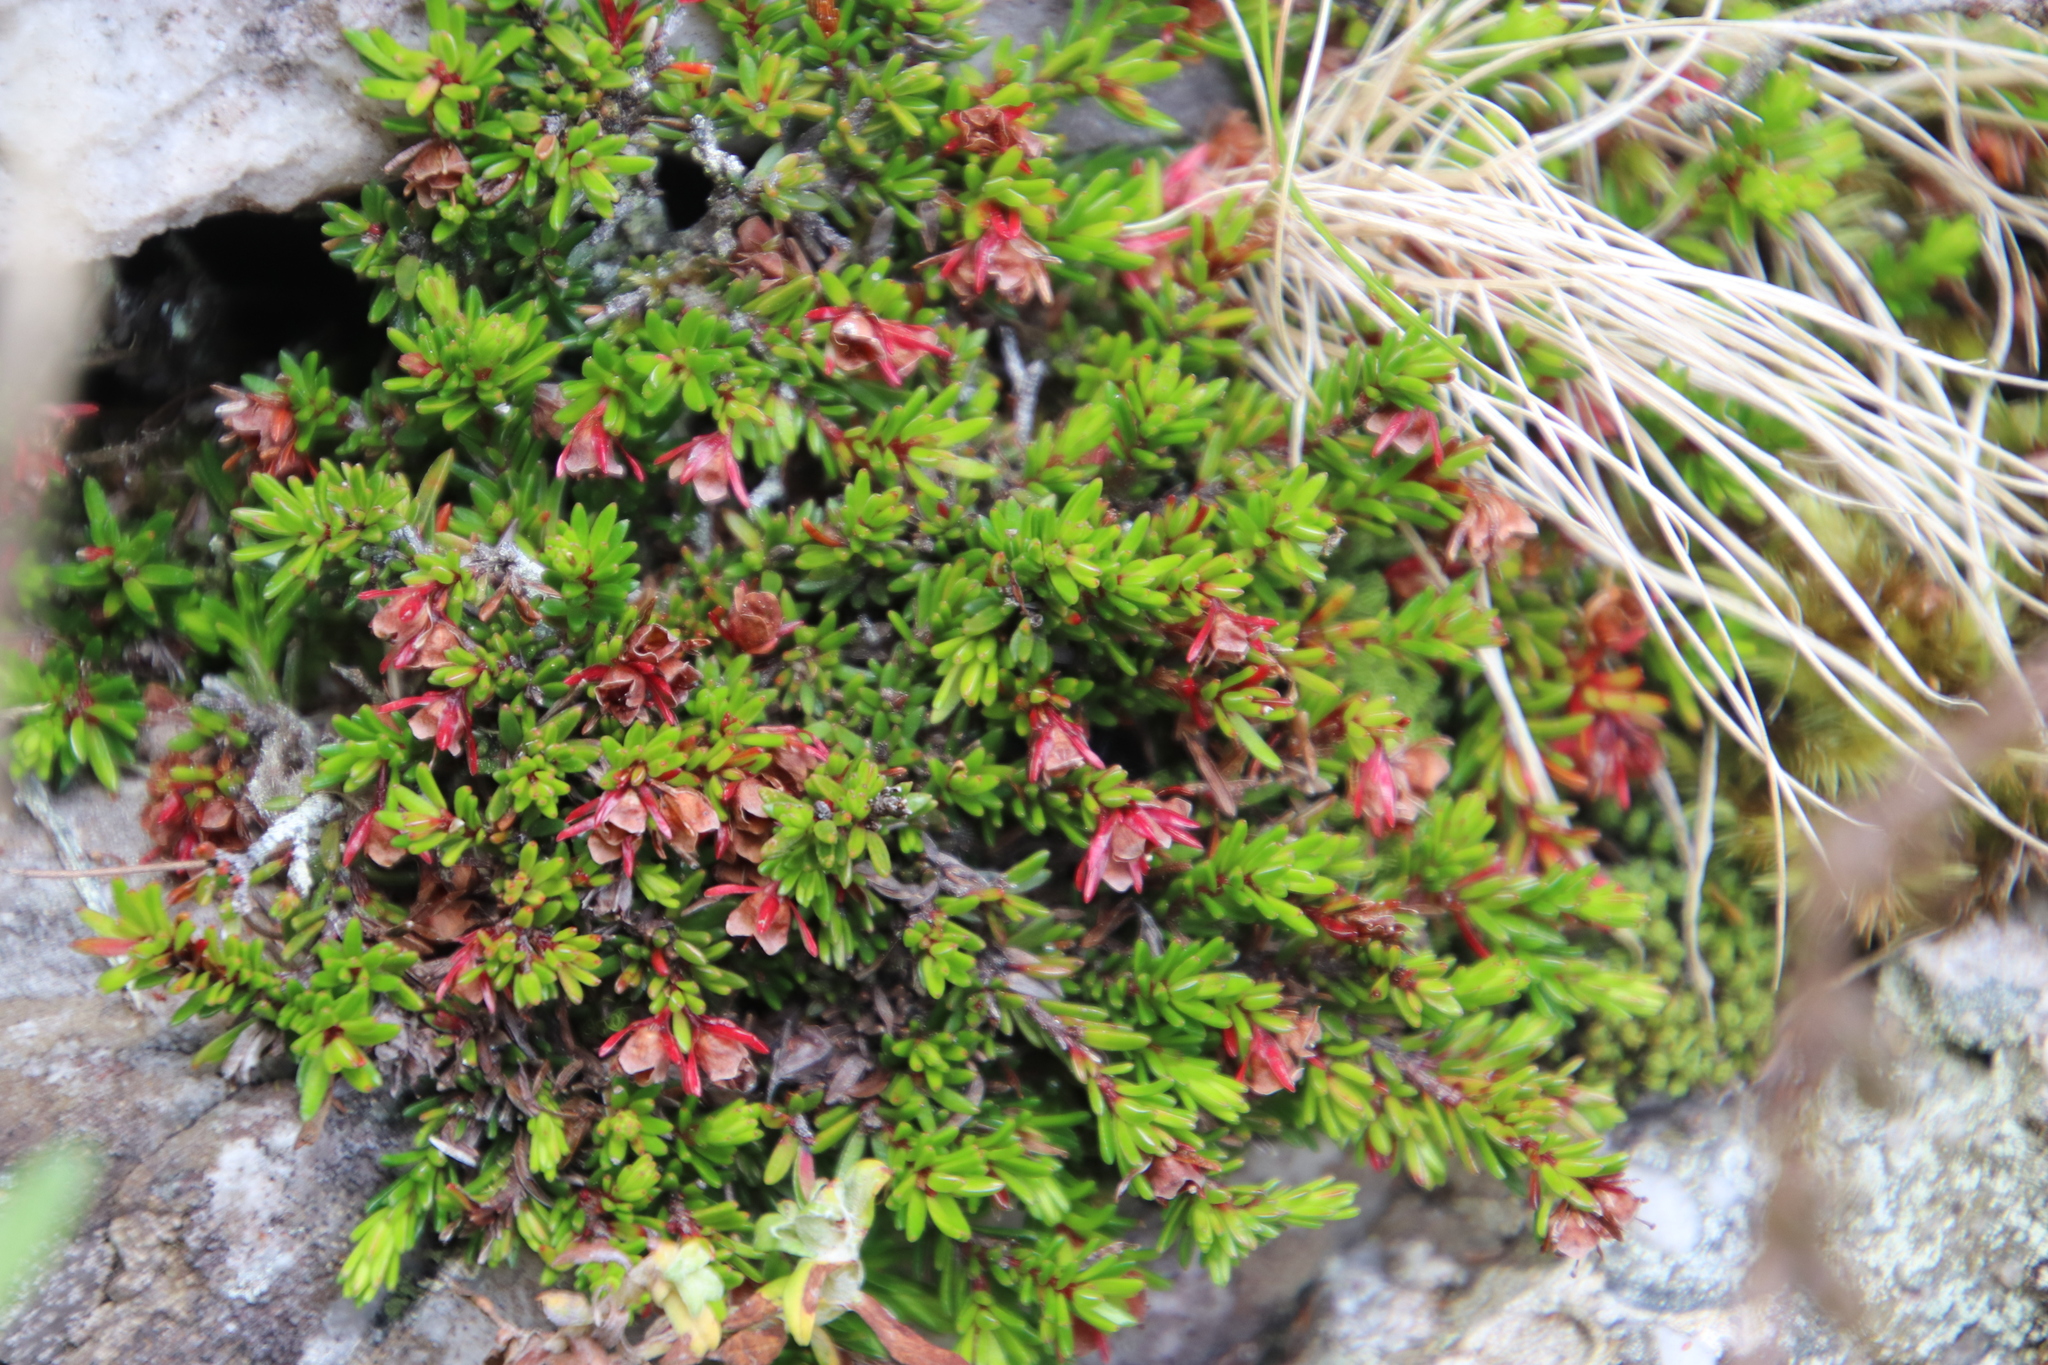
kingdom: Plantae
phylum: Tracheophyta
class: Magnoliopsida
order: Ericales
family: Ericaceae
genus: Erica
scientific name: Erica depressa
